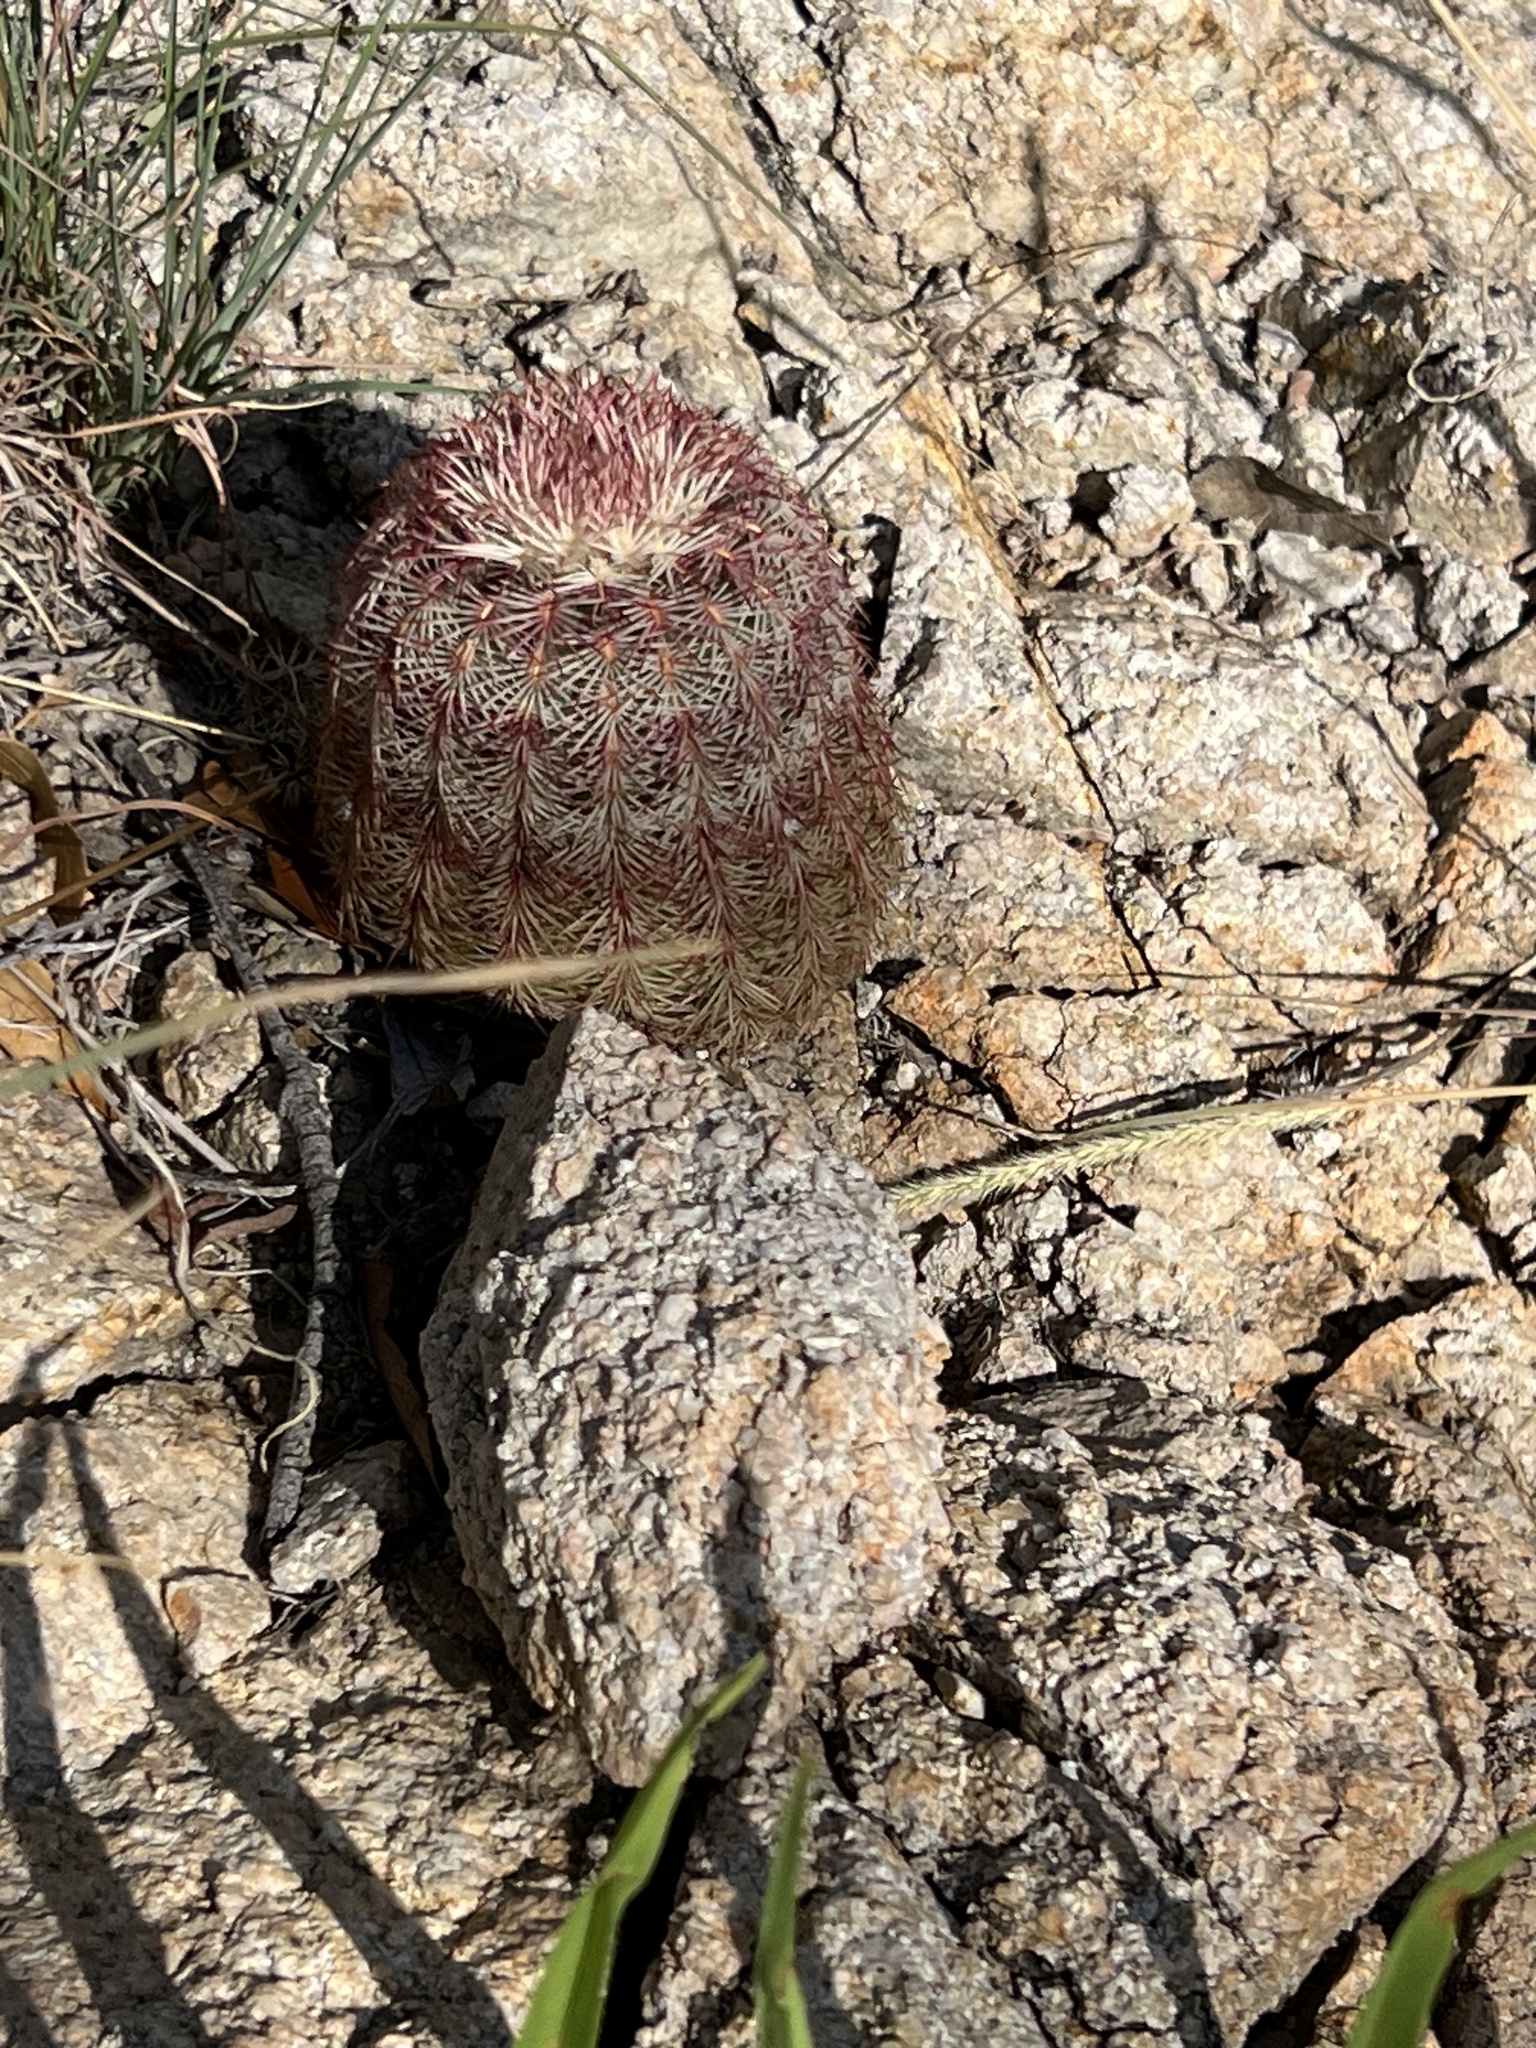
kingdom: Plantae
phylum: Tracheophyta
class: Magnoliopsida
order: Caryophyllales
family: Cactaceae
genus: Echinocereus
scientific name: Echinocereus rigidissimus
